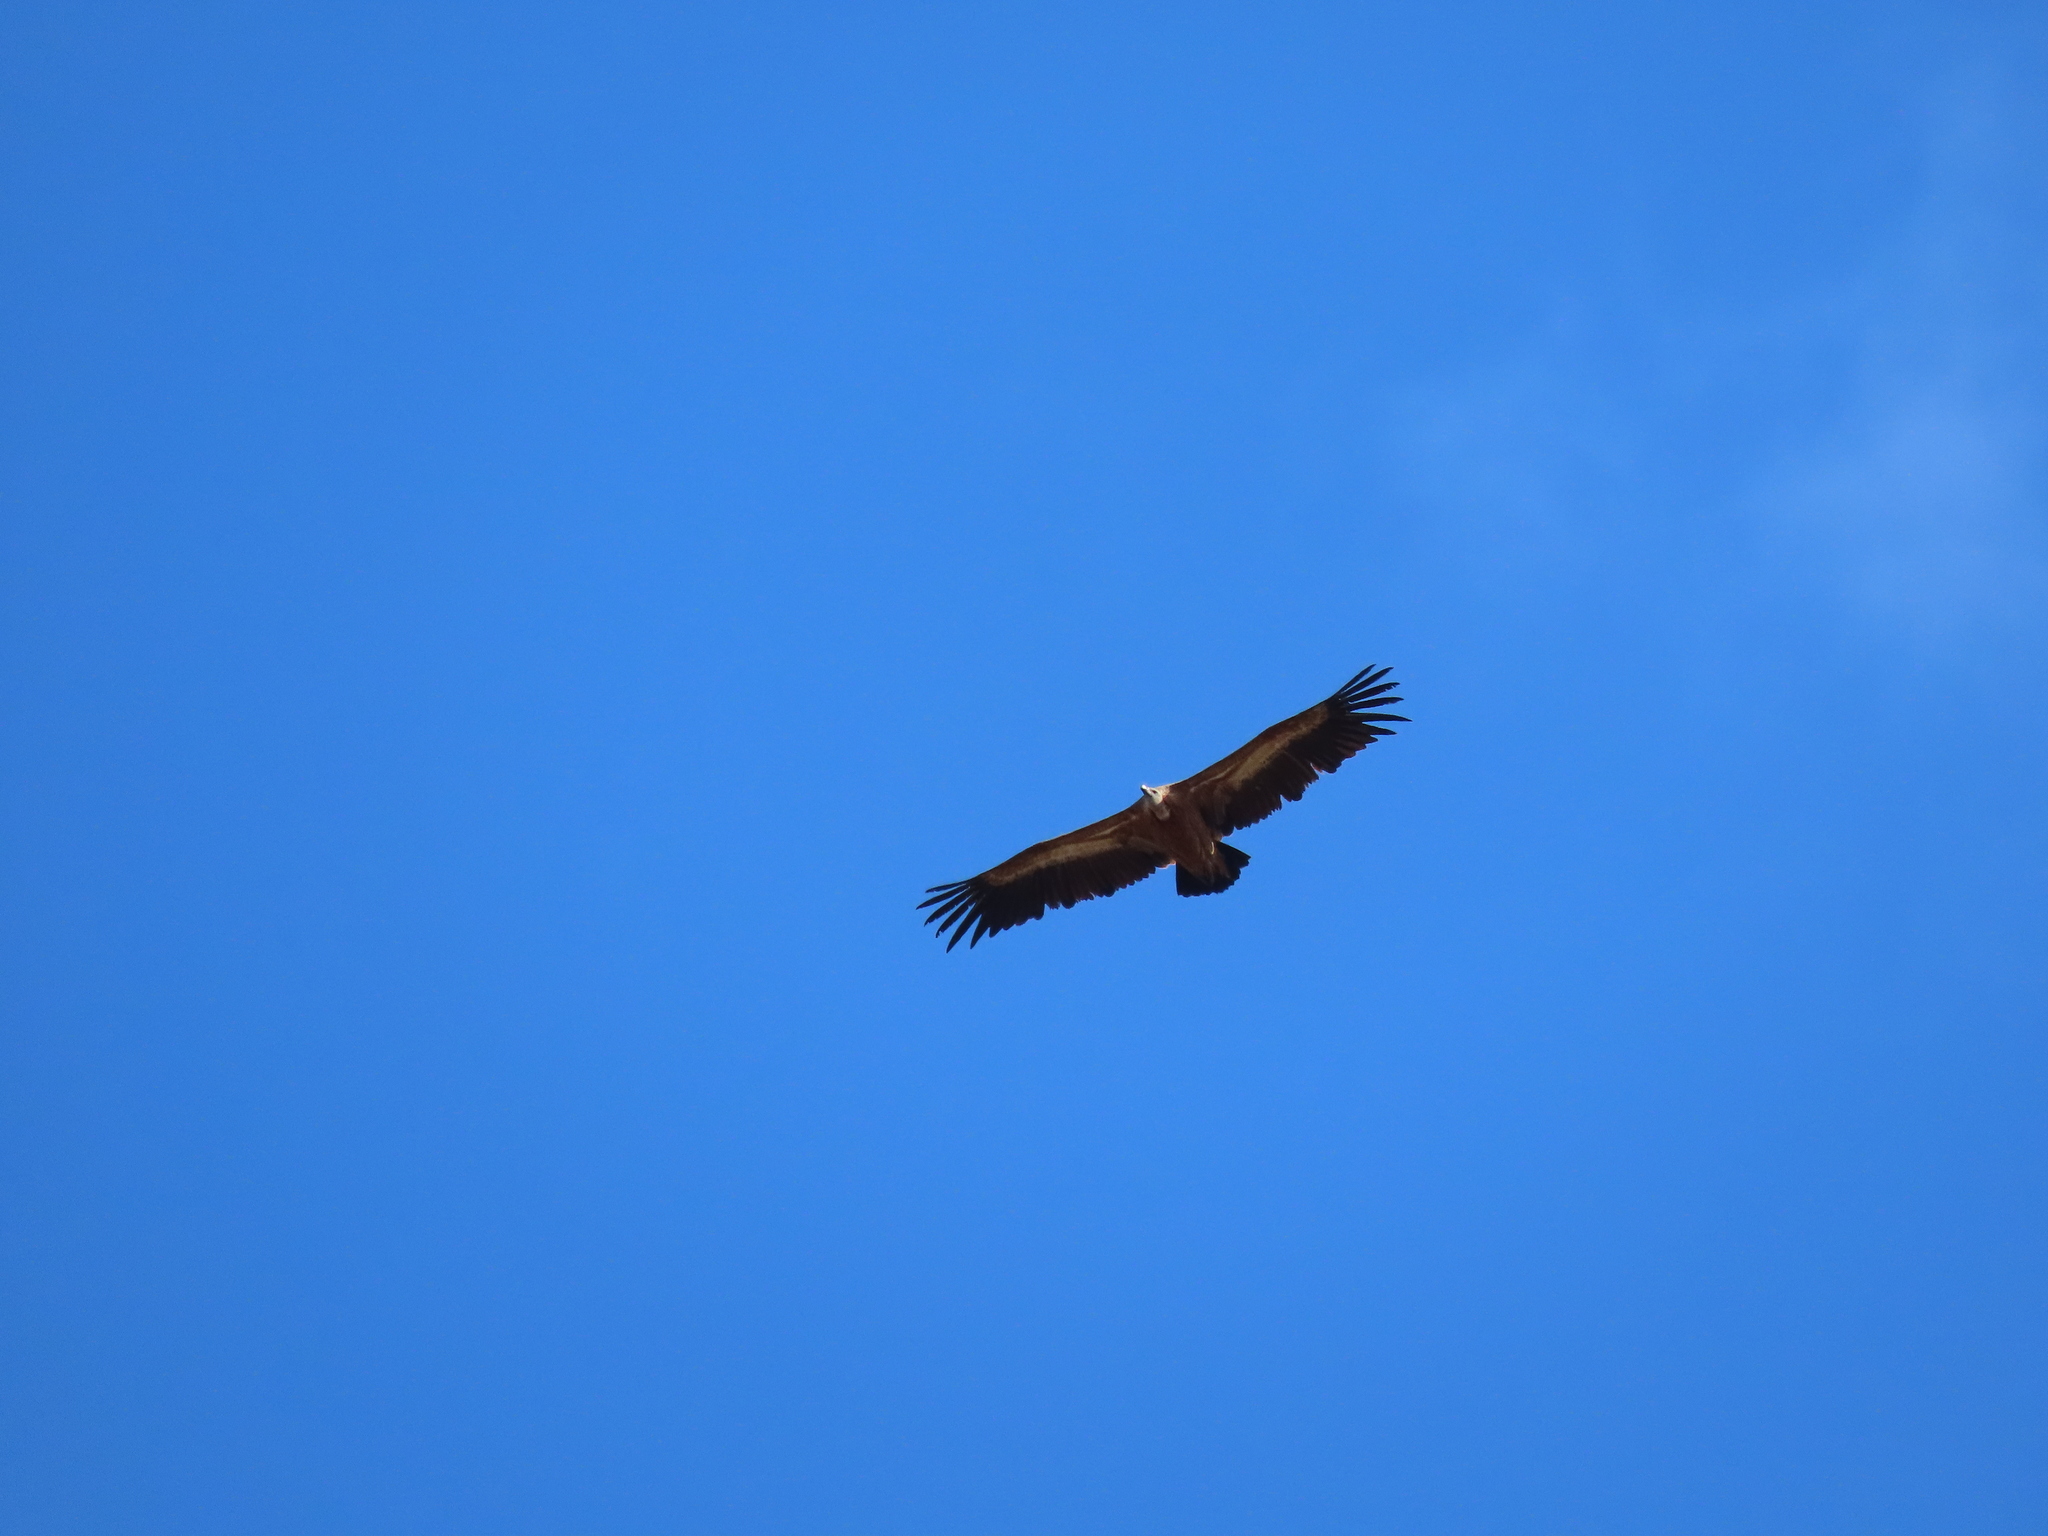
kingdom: Animalia
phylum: Chordata
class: Aves
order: Accipitriformes
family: Accipitridae
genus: Gyps
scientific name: Gyps fulvus
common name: Griffon vulture
